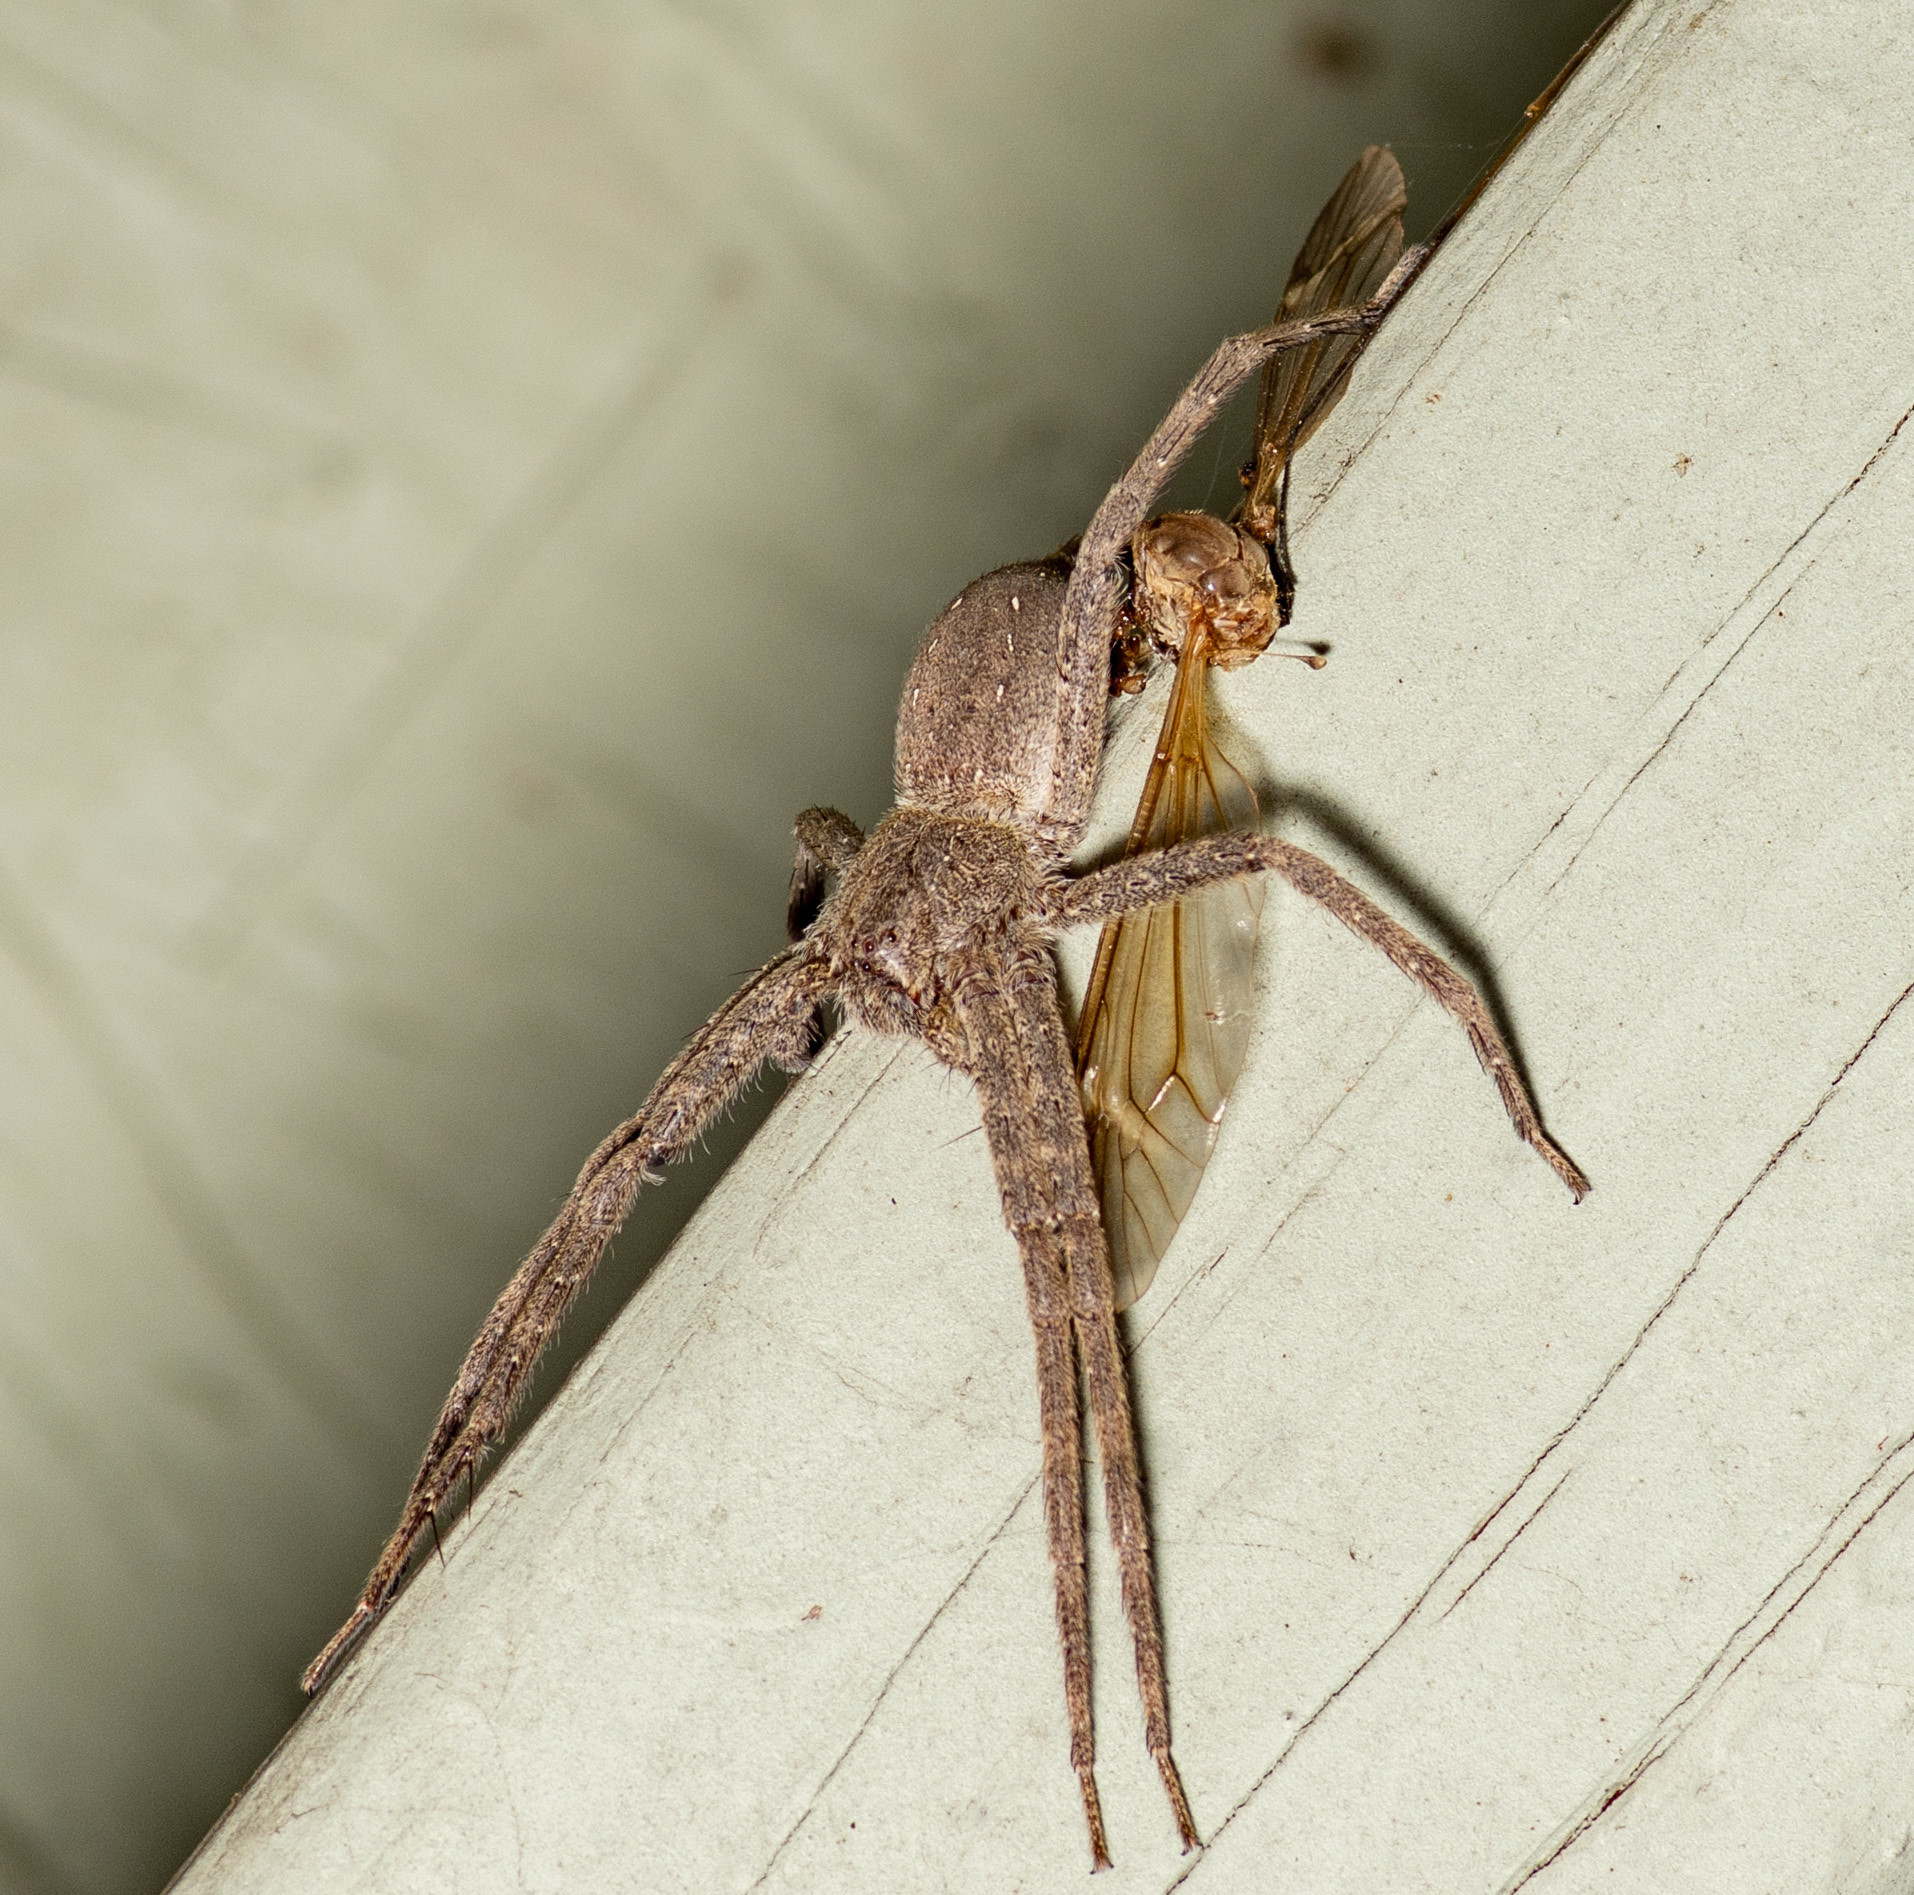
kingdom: Animalia
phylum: Arthropoda
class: Arachnida
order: Araneae
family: Pisauridae
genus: Pisaurina
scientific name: Pisaurina mira
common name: American nursery web spider
